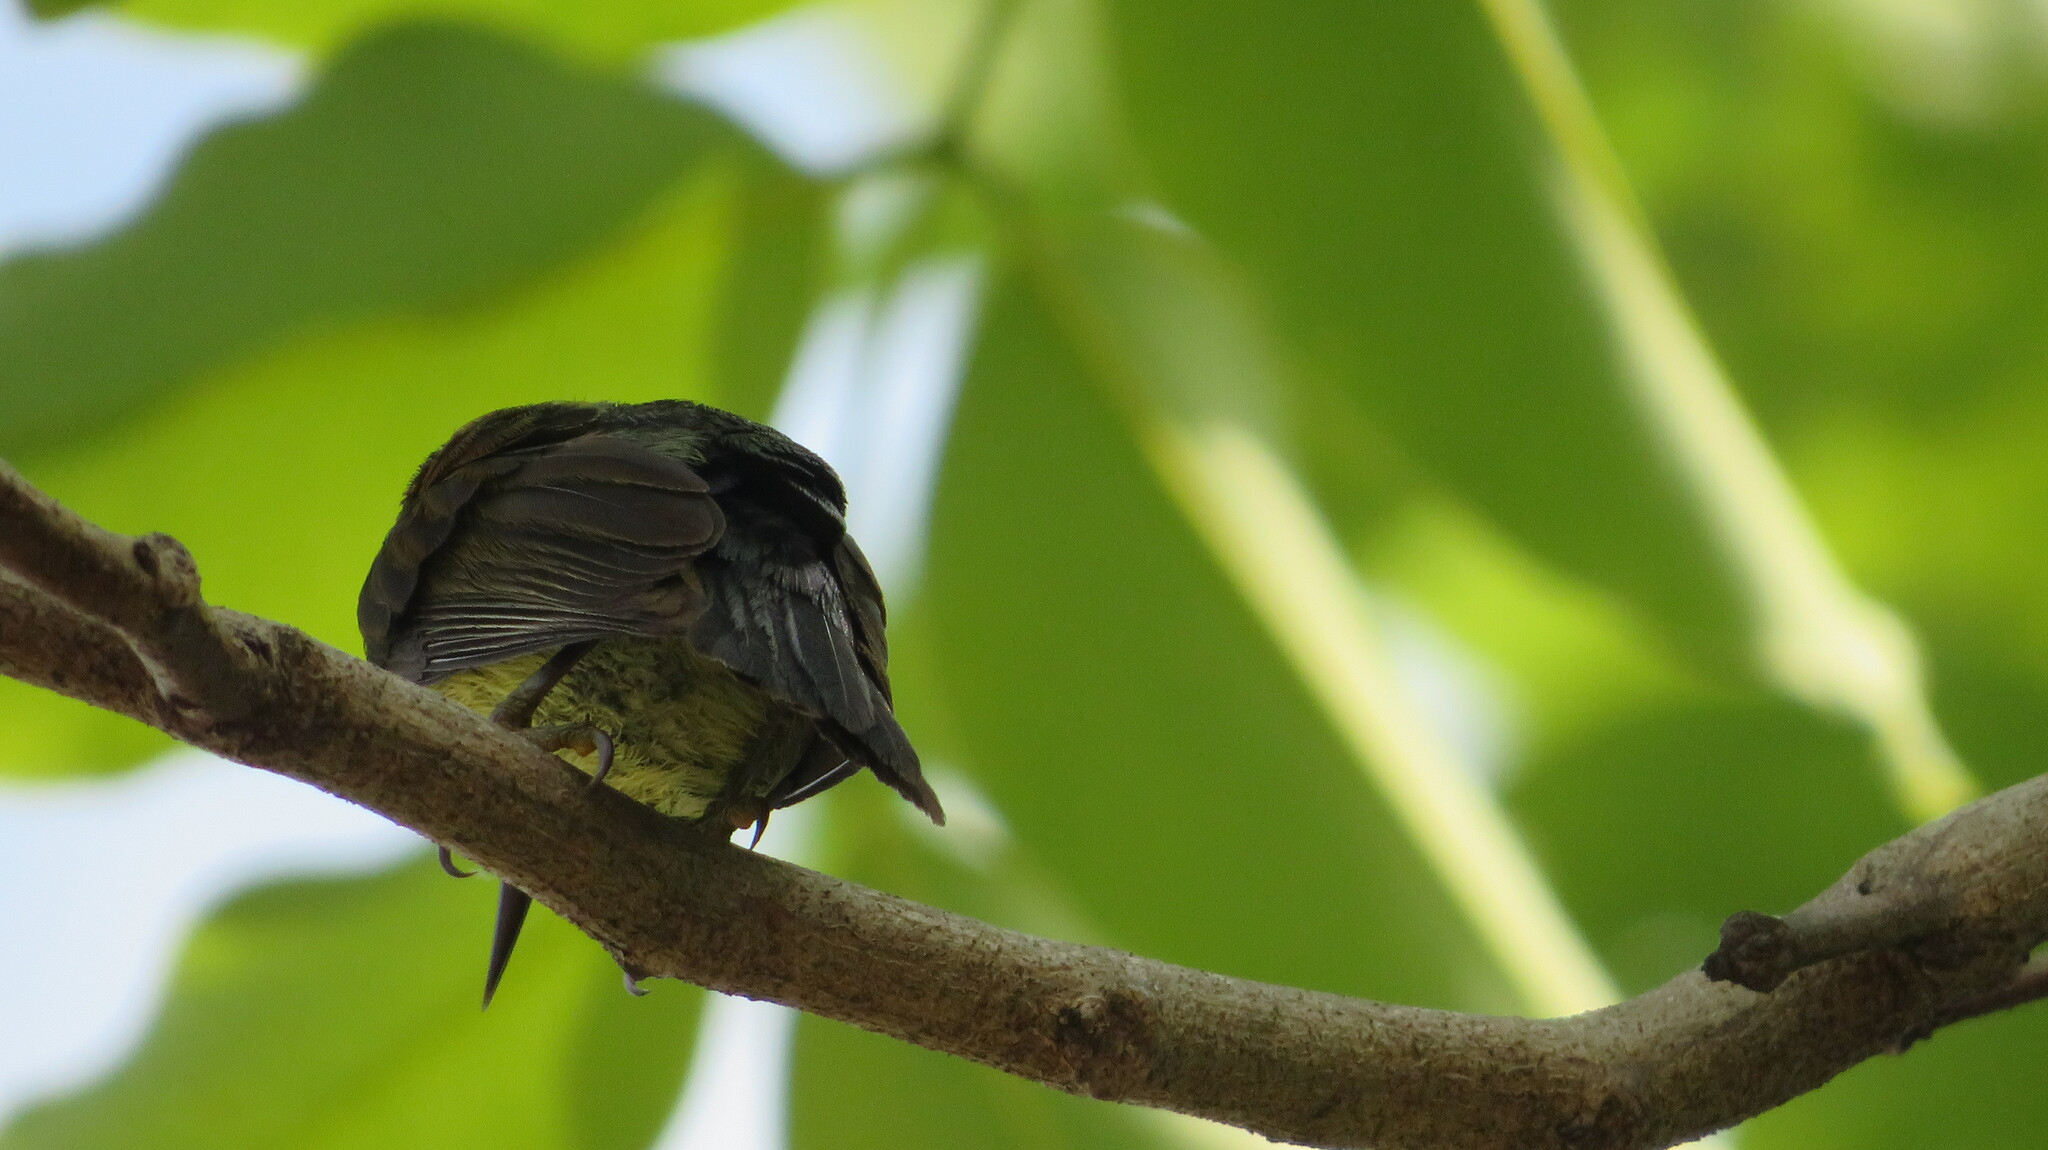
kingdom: Animalia
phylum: Chordata
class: Aves
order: Passeriformes
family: Nectariniidae
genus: Anthreptes
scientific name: Anthreptes malacensis
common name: Brown-throated sunbird
